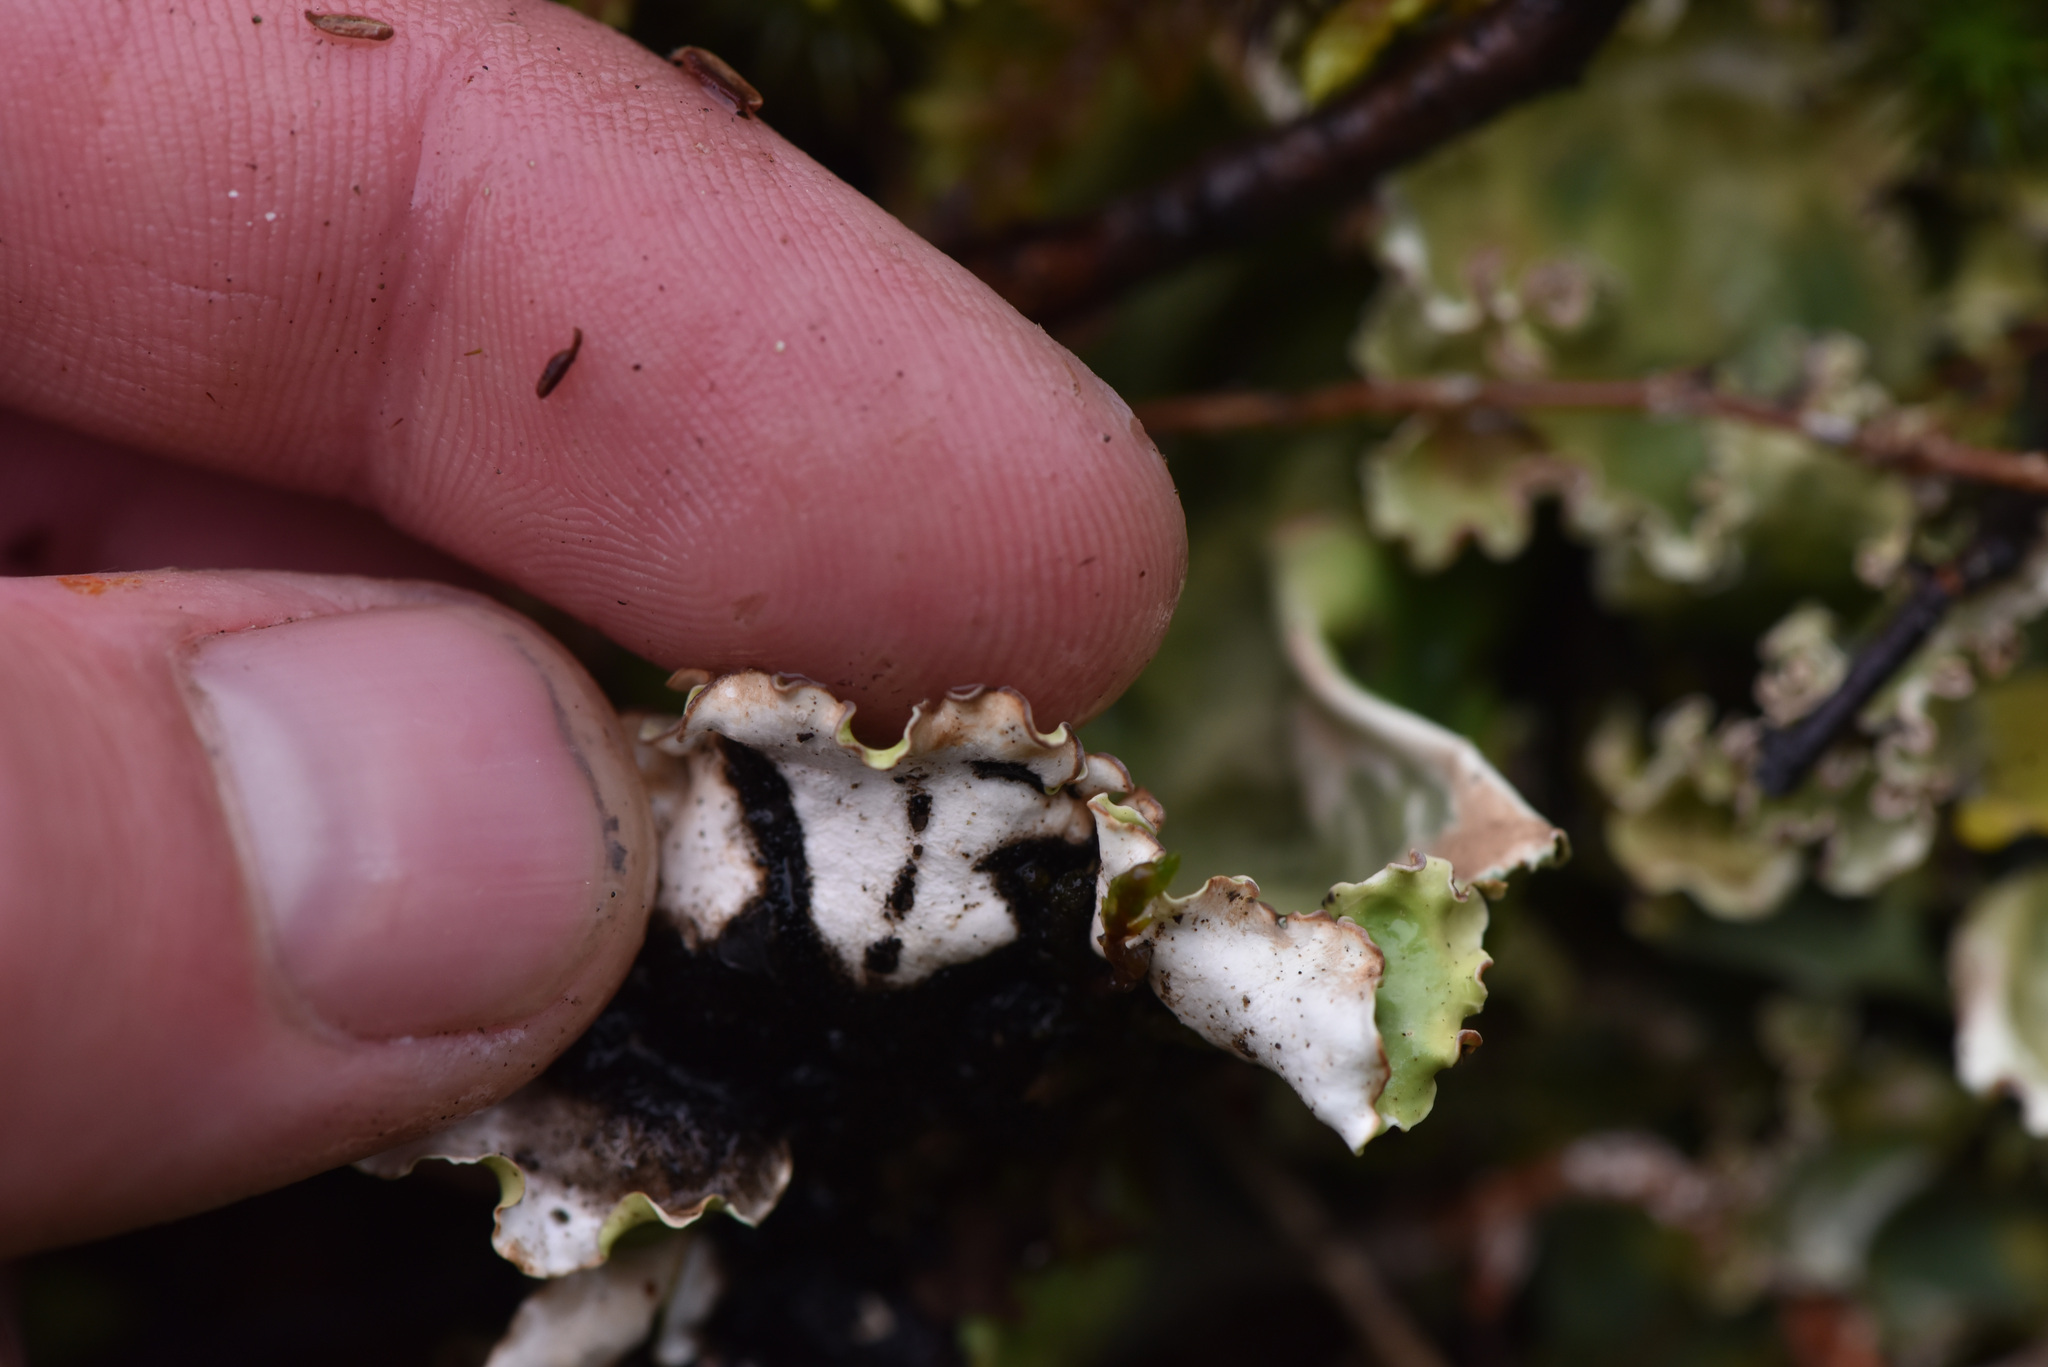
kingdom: Fungi
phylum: Ascomycota
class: Lecanoromycetes
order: Peltigerales
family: Nephromataceae
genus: Nephroma
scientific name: Nephroma arcticum
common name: Arctic kidney-lichen
